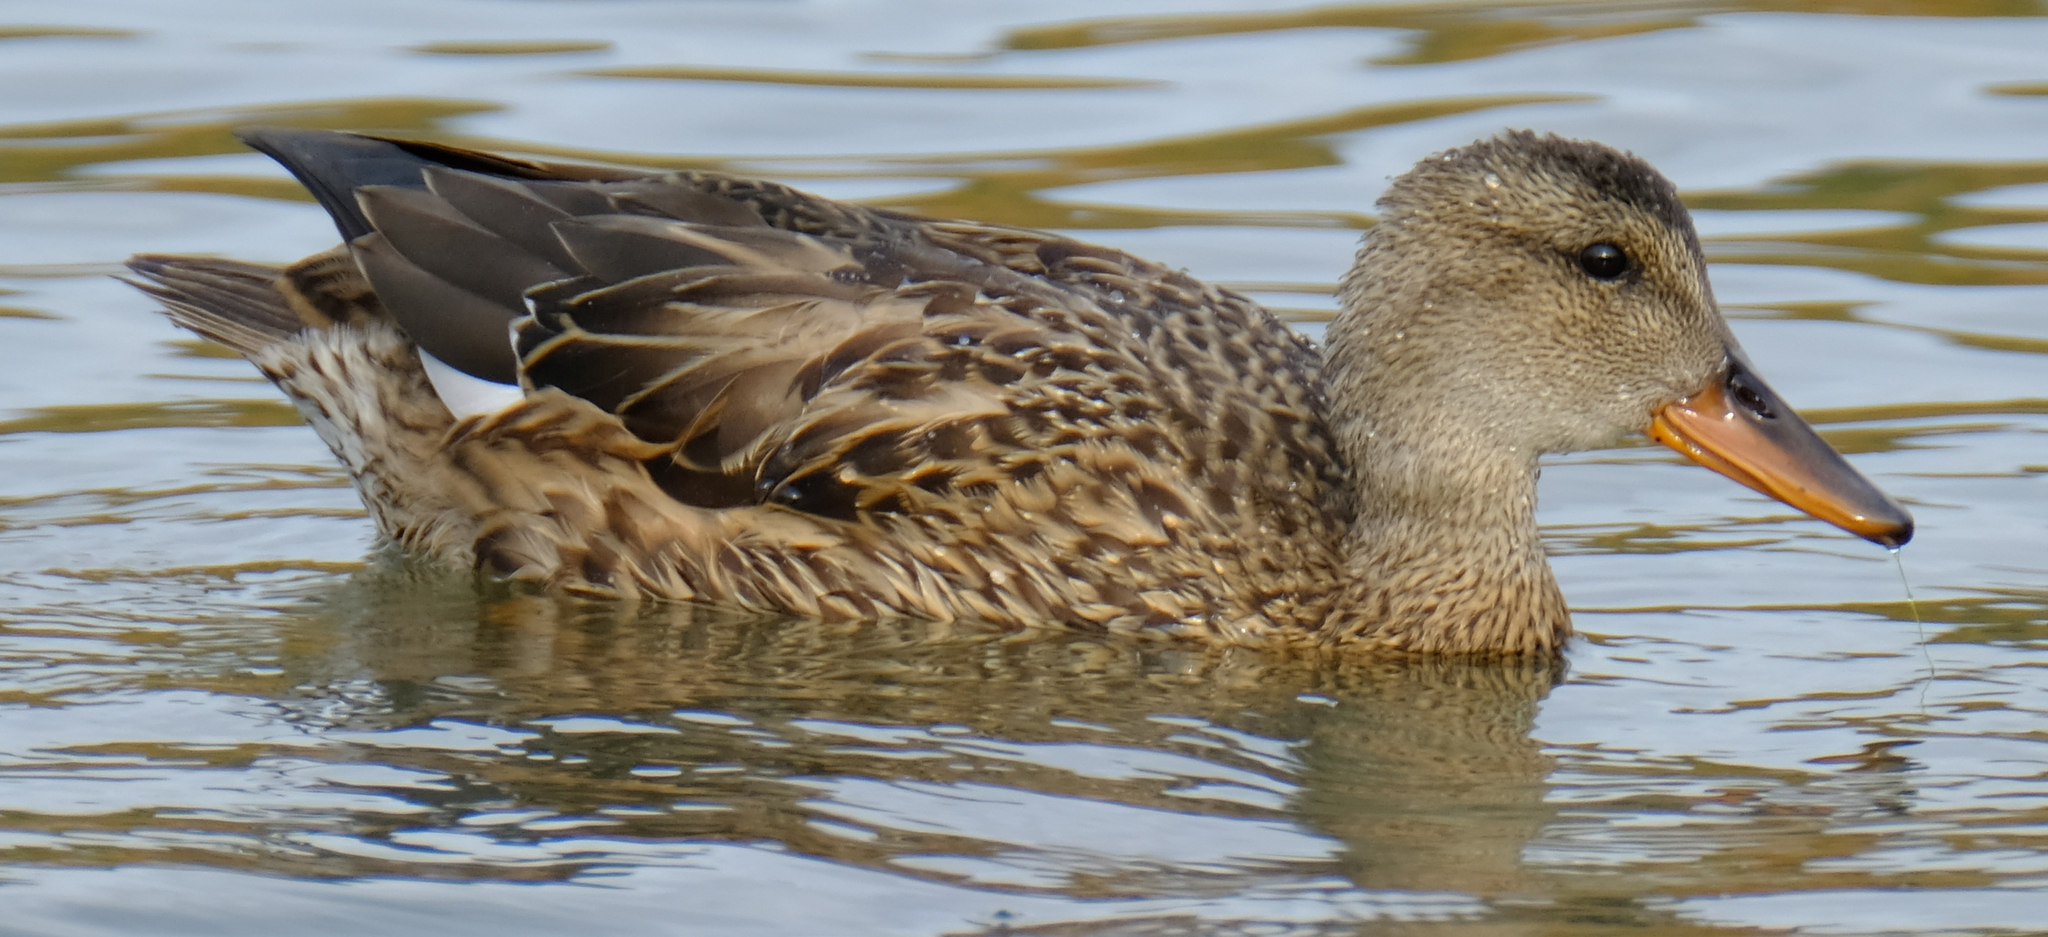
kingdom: Animalia
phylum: Chordata
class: Aves
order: Anseriformes
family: Anatidae
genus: Mareca
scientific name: Mareca strepera
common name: Gadwall
